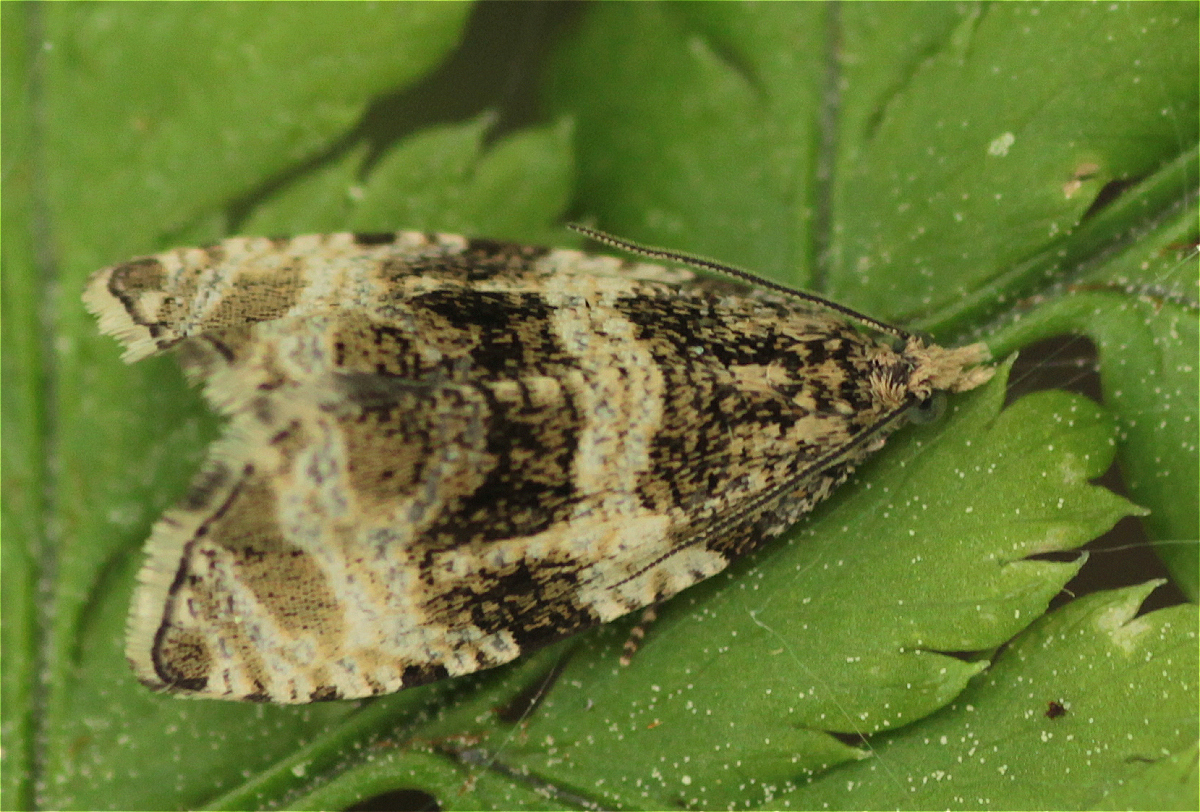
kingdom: Animalia
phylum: Arthropoda
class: Insecta
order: Lepidoptera
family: Tortricidae
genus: Olethreutes
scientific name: Olethreutes umbrosana
